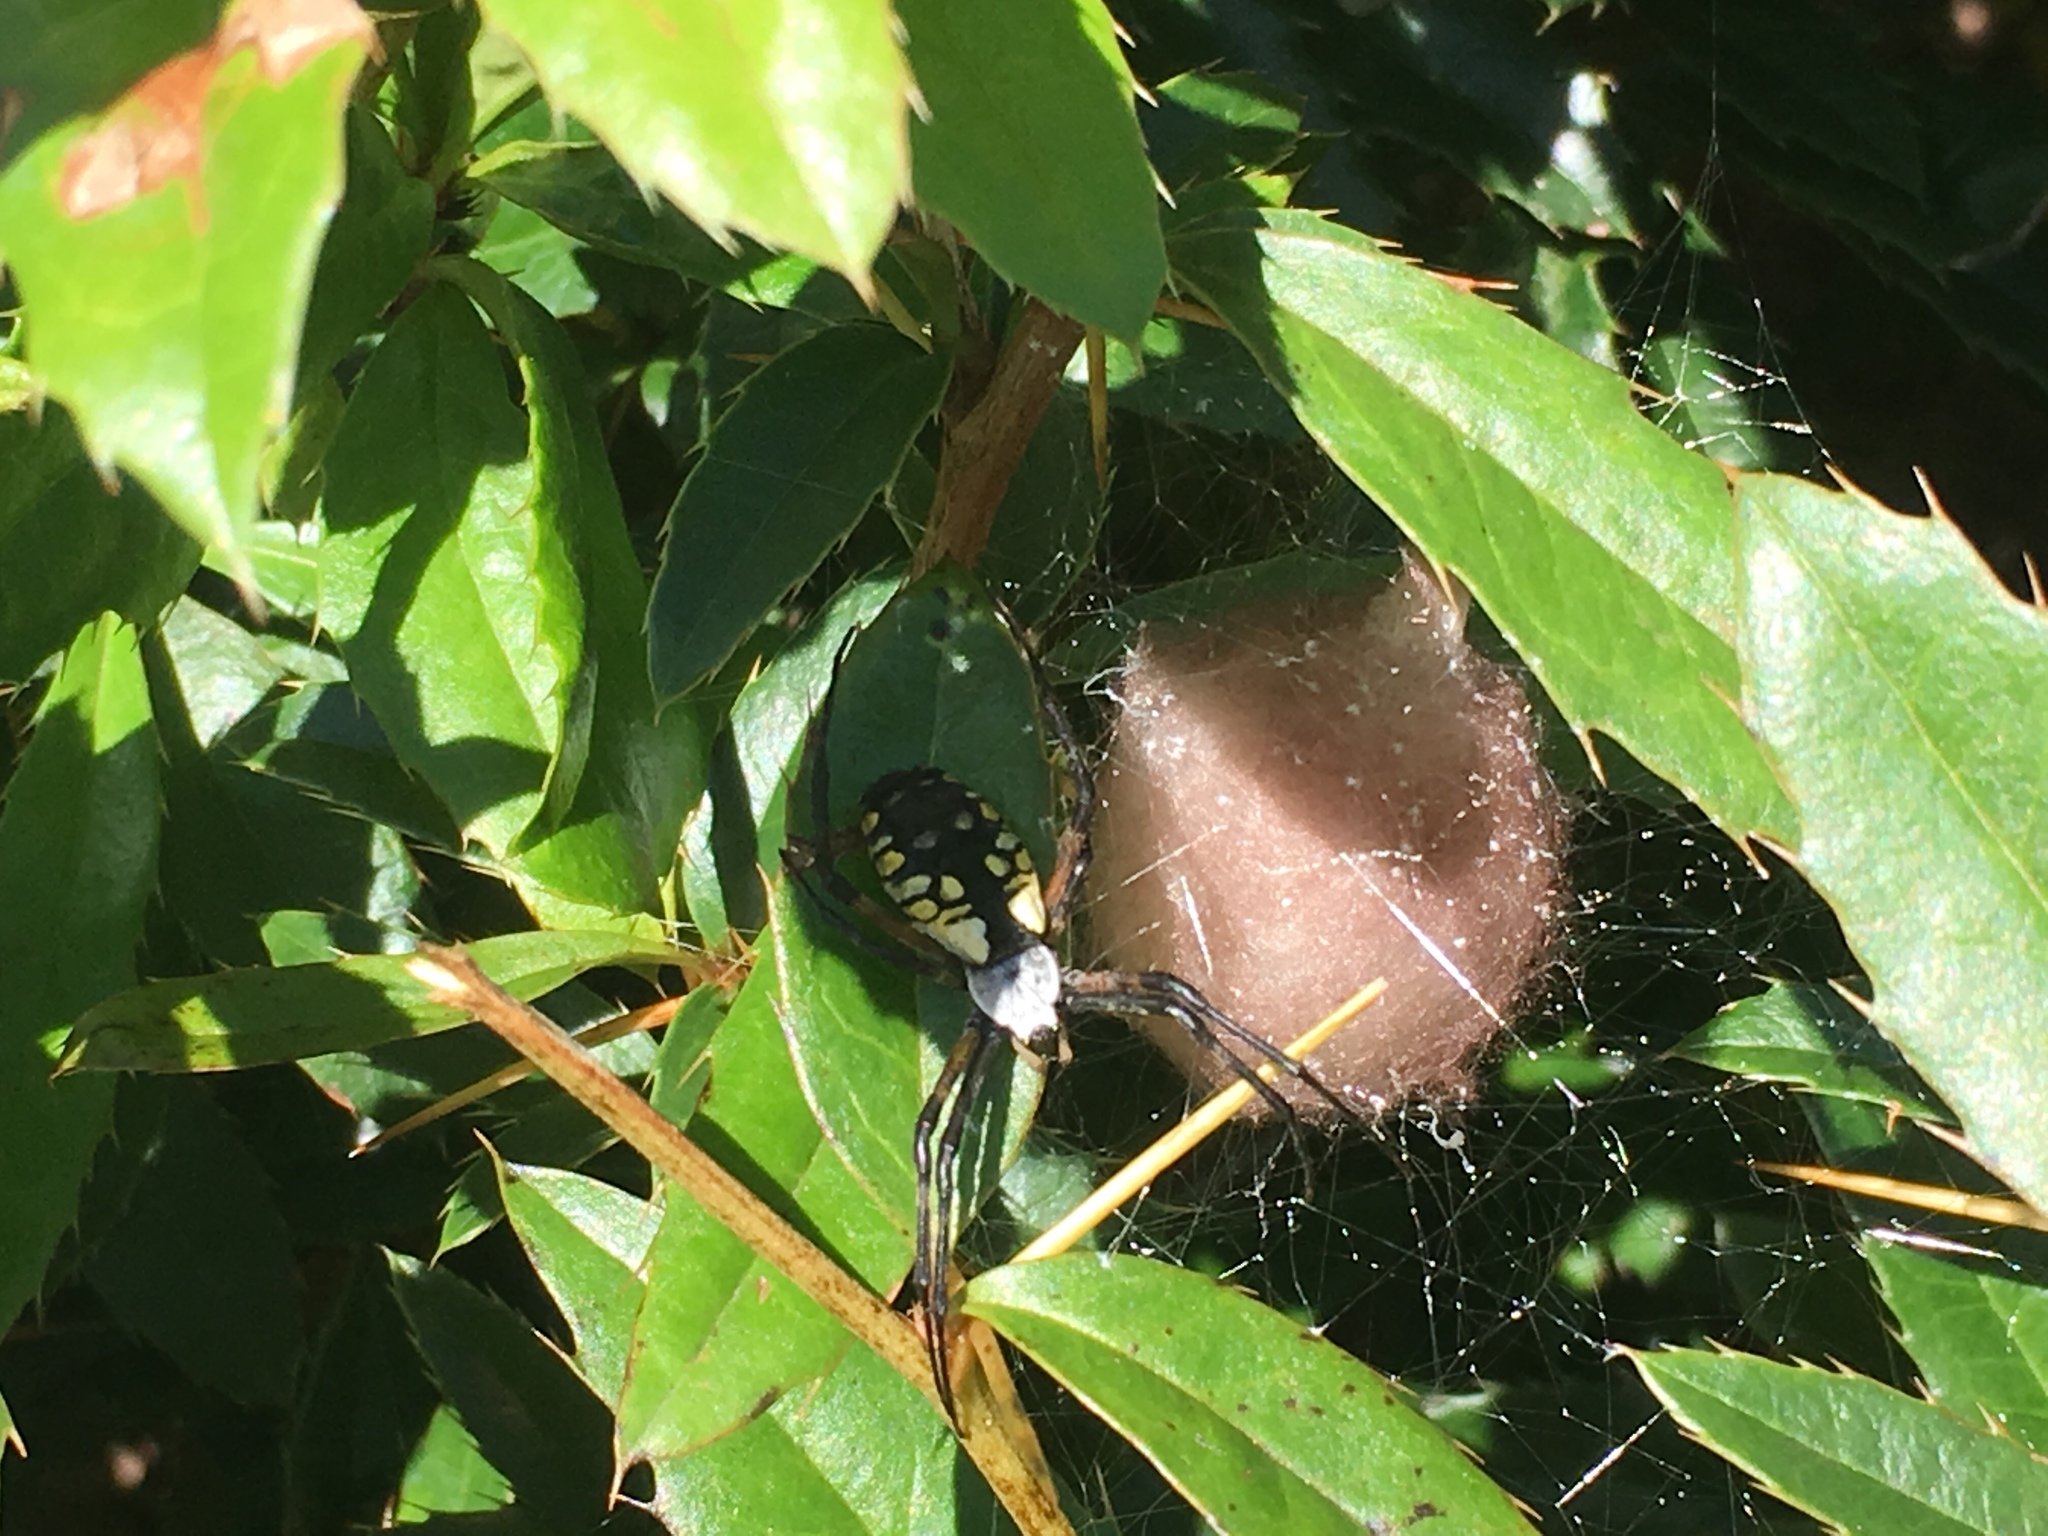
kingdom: Animalia
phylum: Arthropoda
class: Arachnida
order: Araneae
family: Araneidae
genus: Argiope
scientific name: Argiope aurantia
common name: Orb weavers
